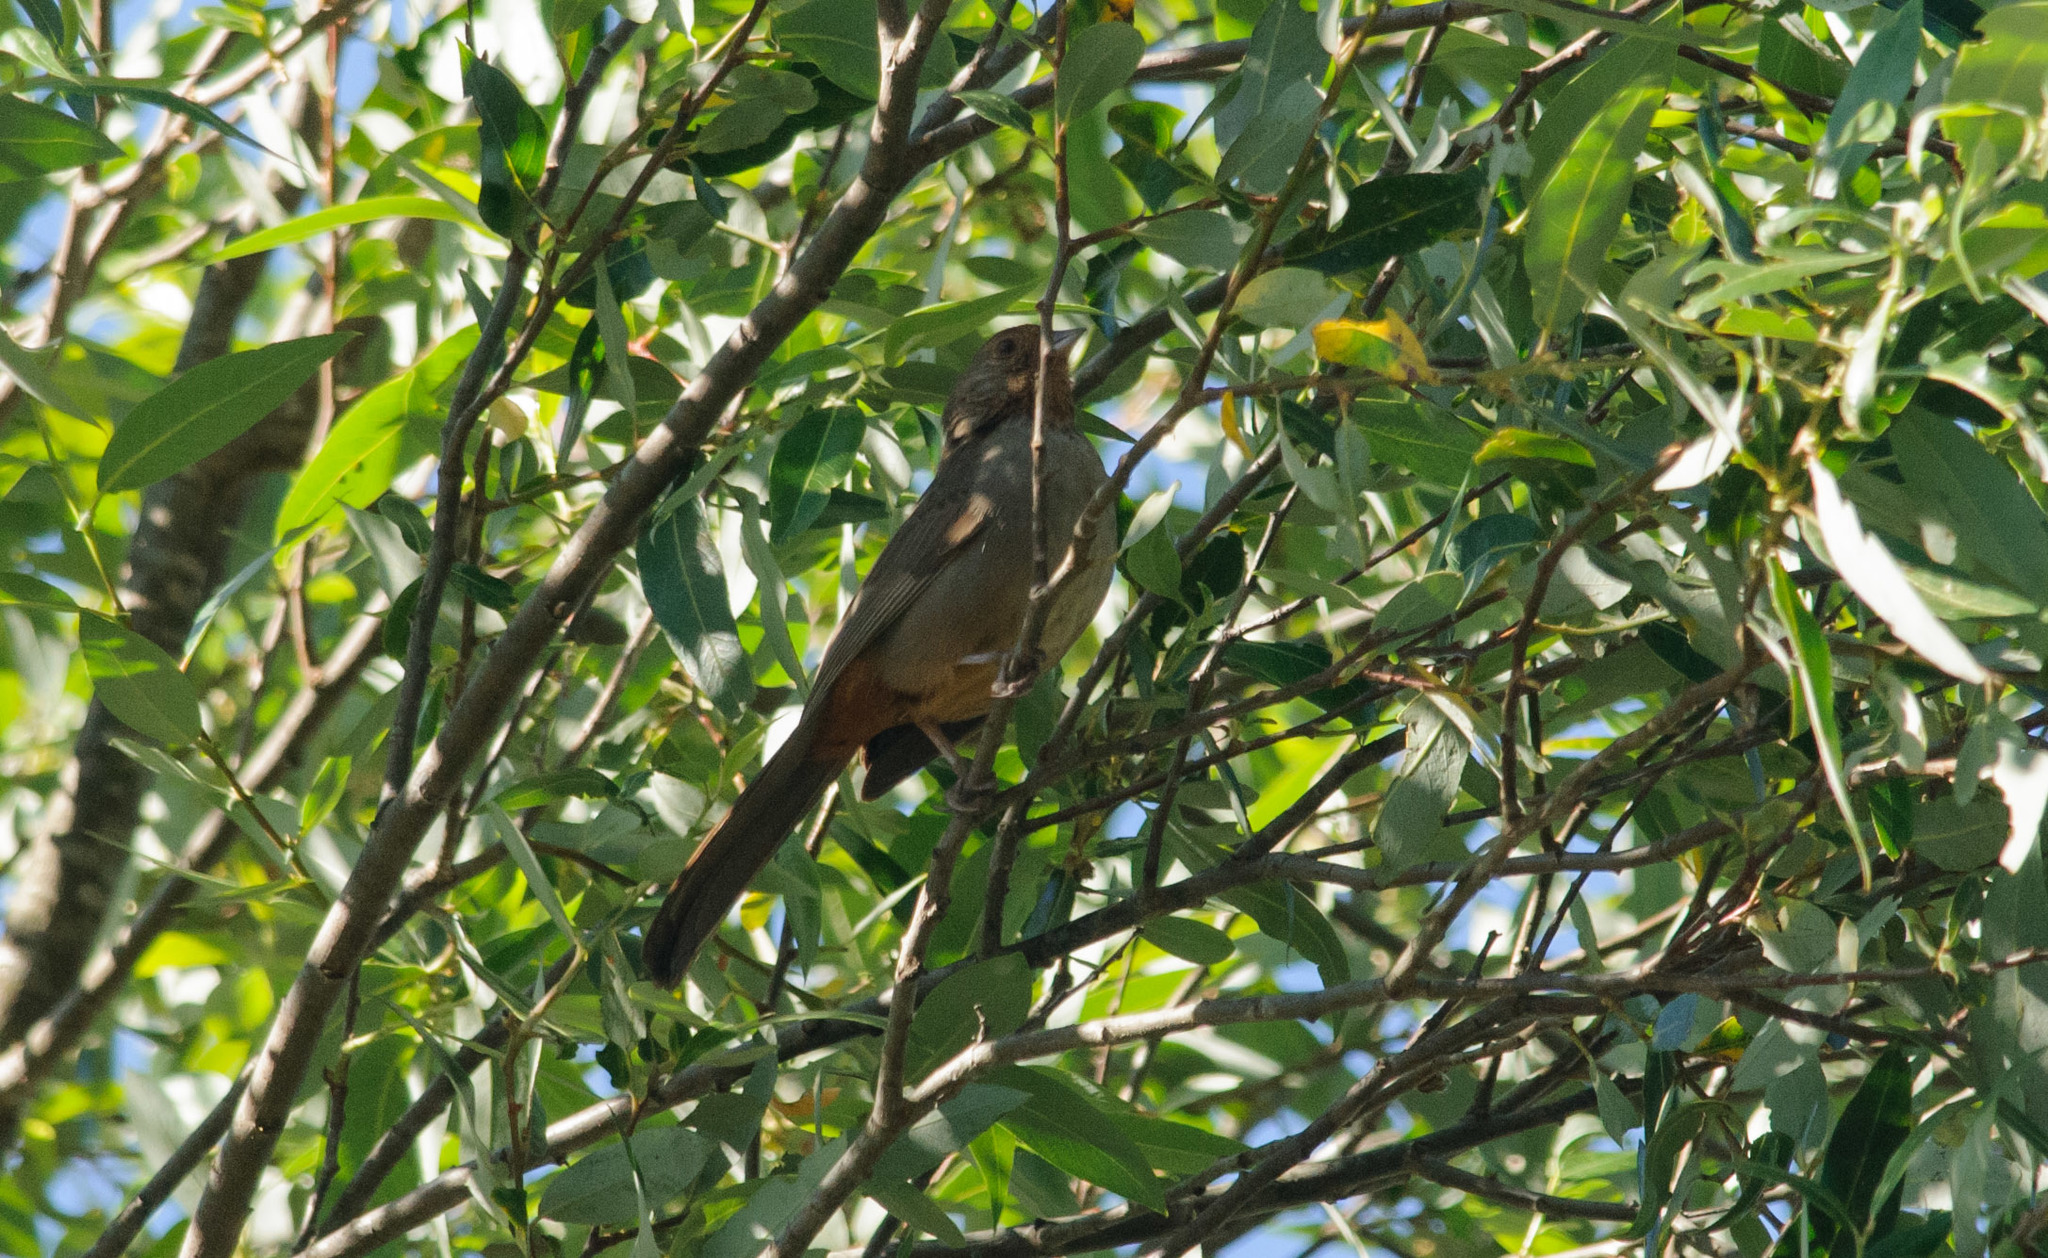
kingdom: Animalia
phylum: Chordata
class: Aves
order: Passeriformes
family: Passerellidae
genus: Melozone
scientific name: Melozone crissalis
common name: California towhee
